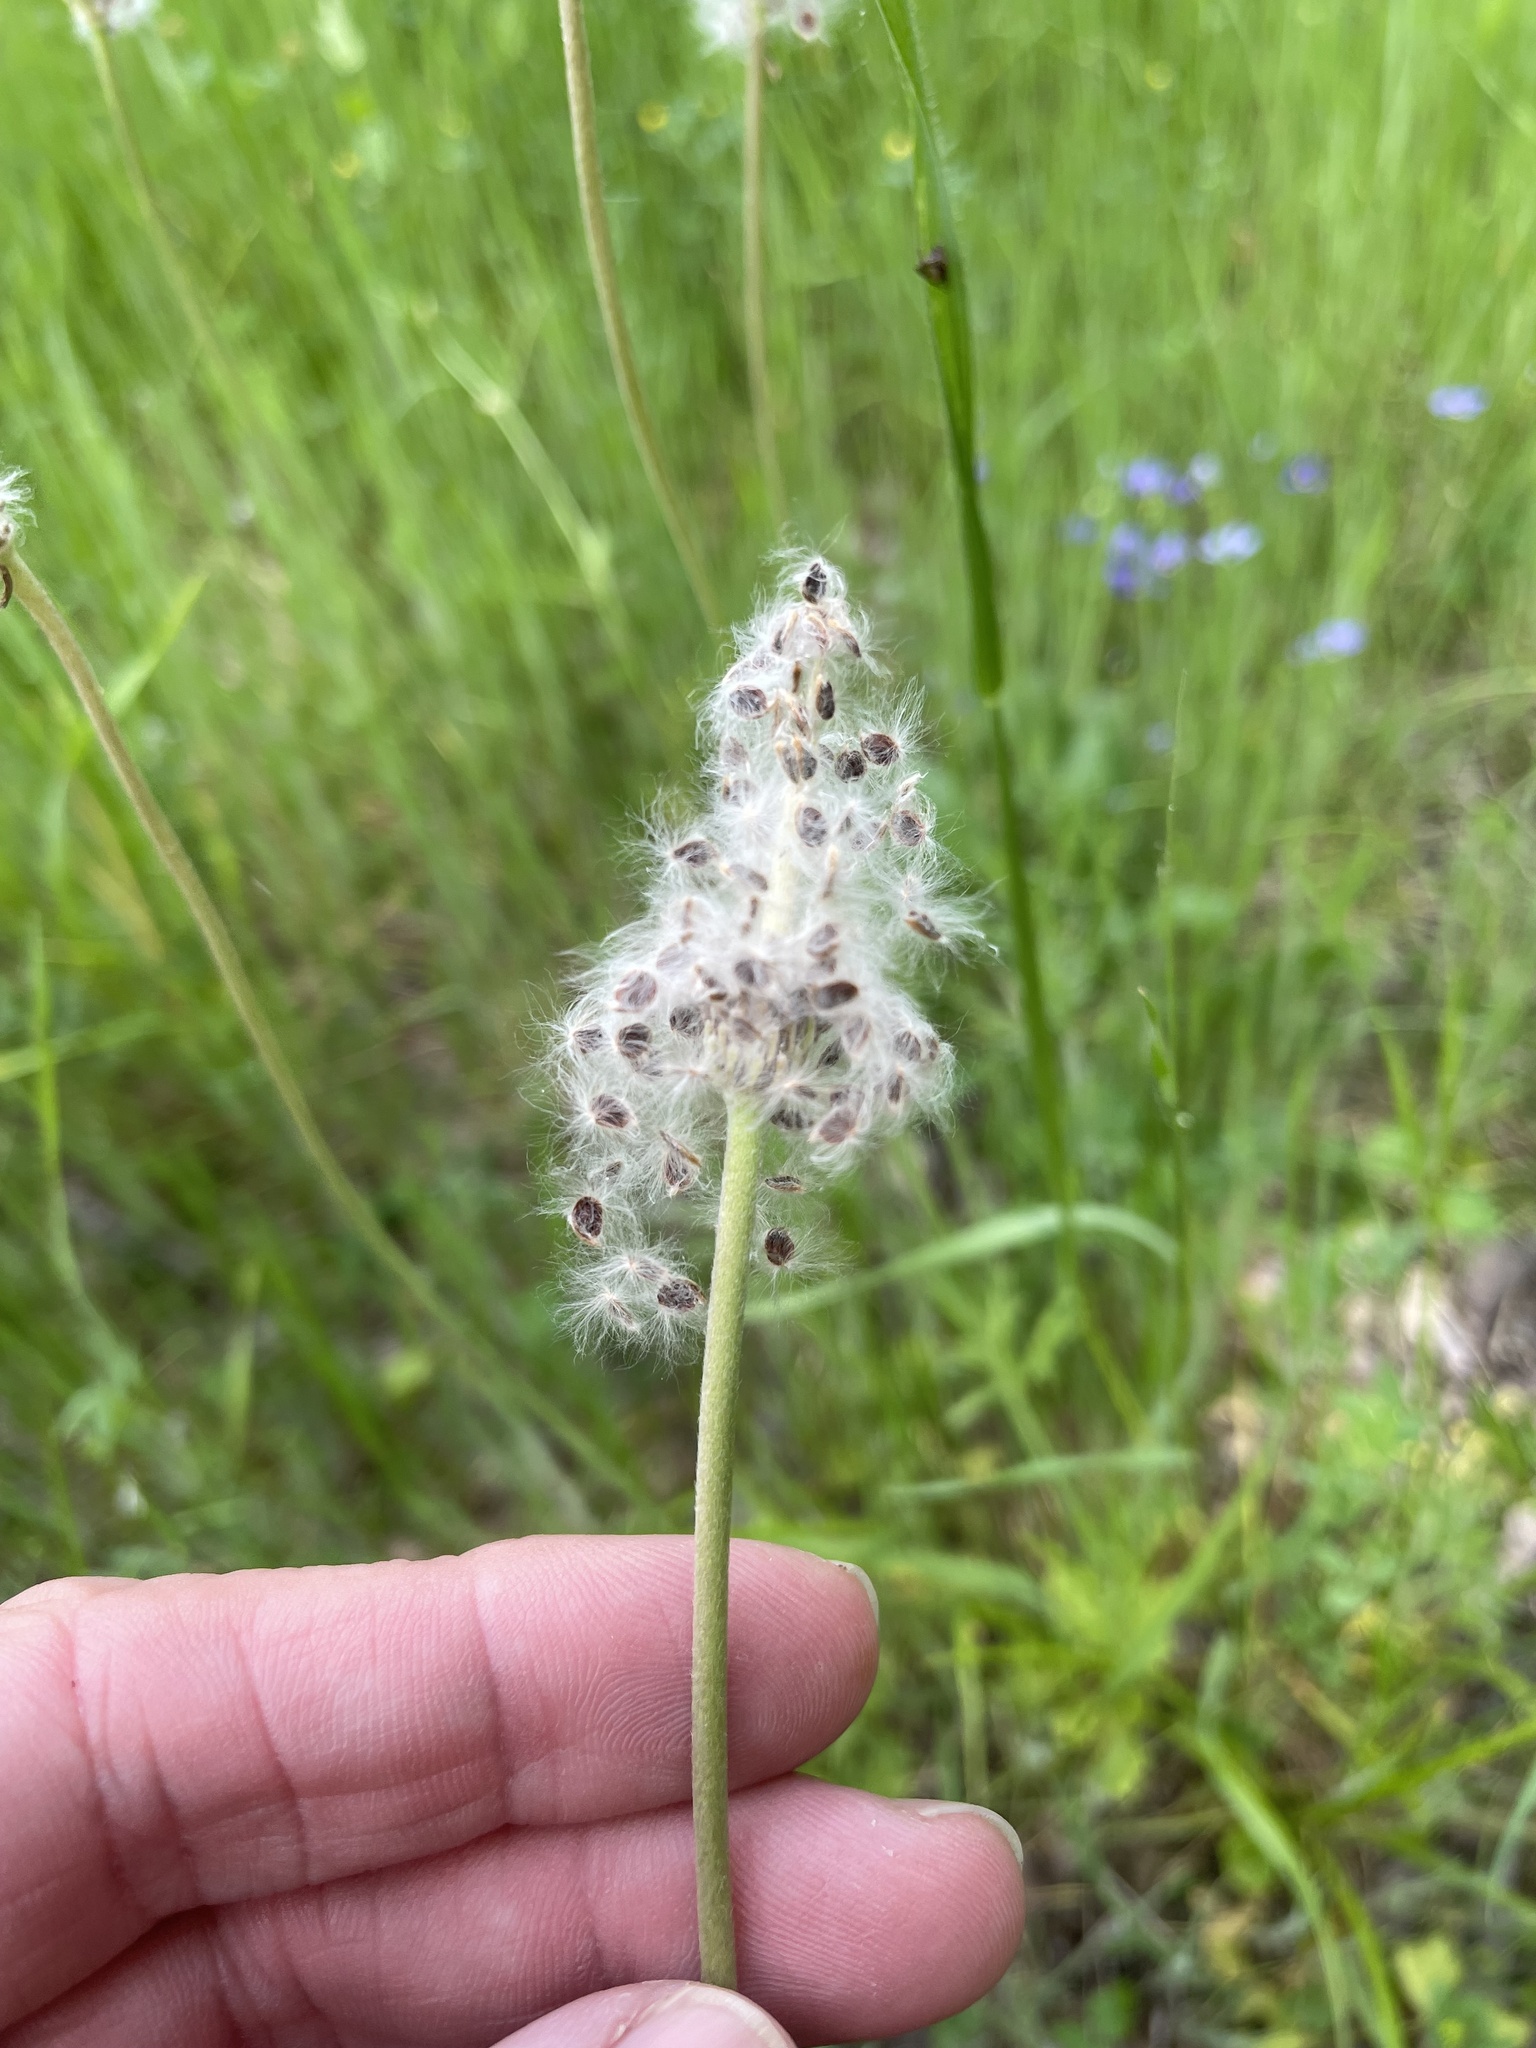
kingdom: Plantae
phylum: Tracheophyta
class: Magnoliopsida
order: Ranunculales
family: Ranunculaceae
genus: Anemone
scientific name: Anemone berlandieri
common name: Ten-petal anemone
